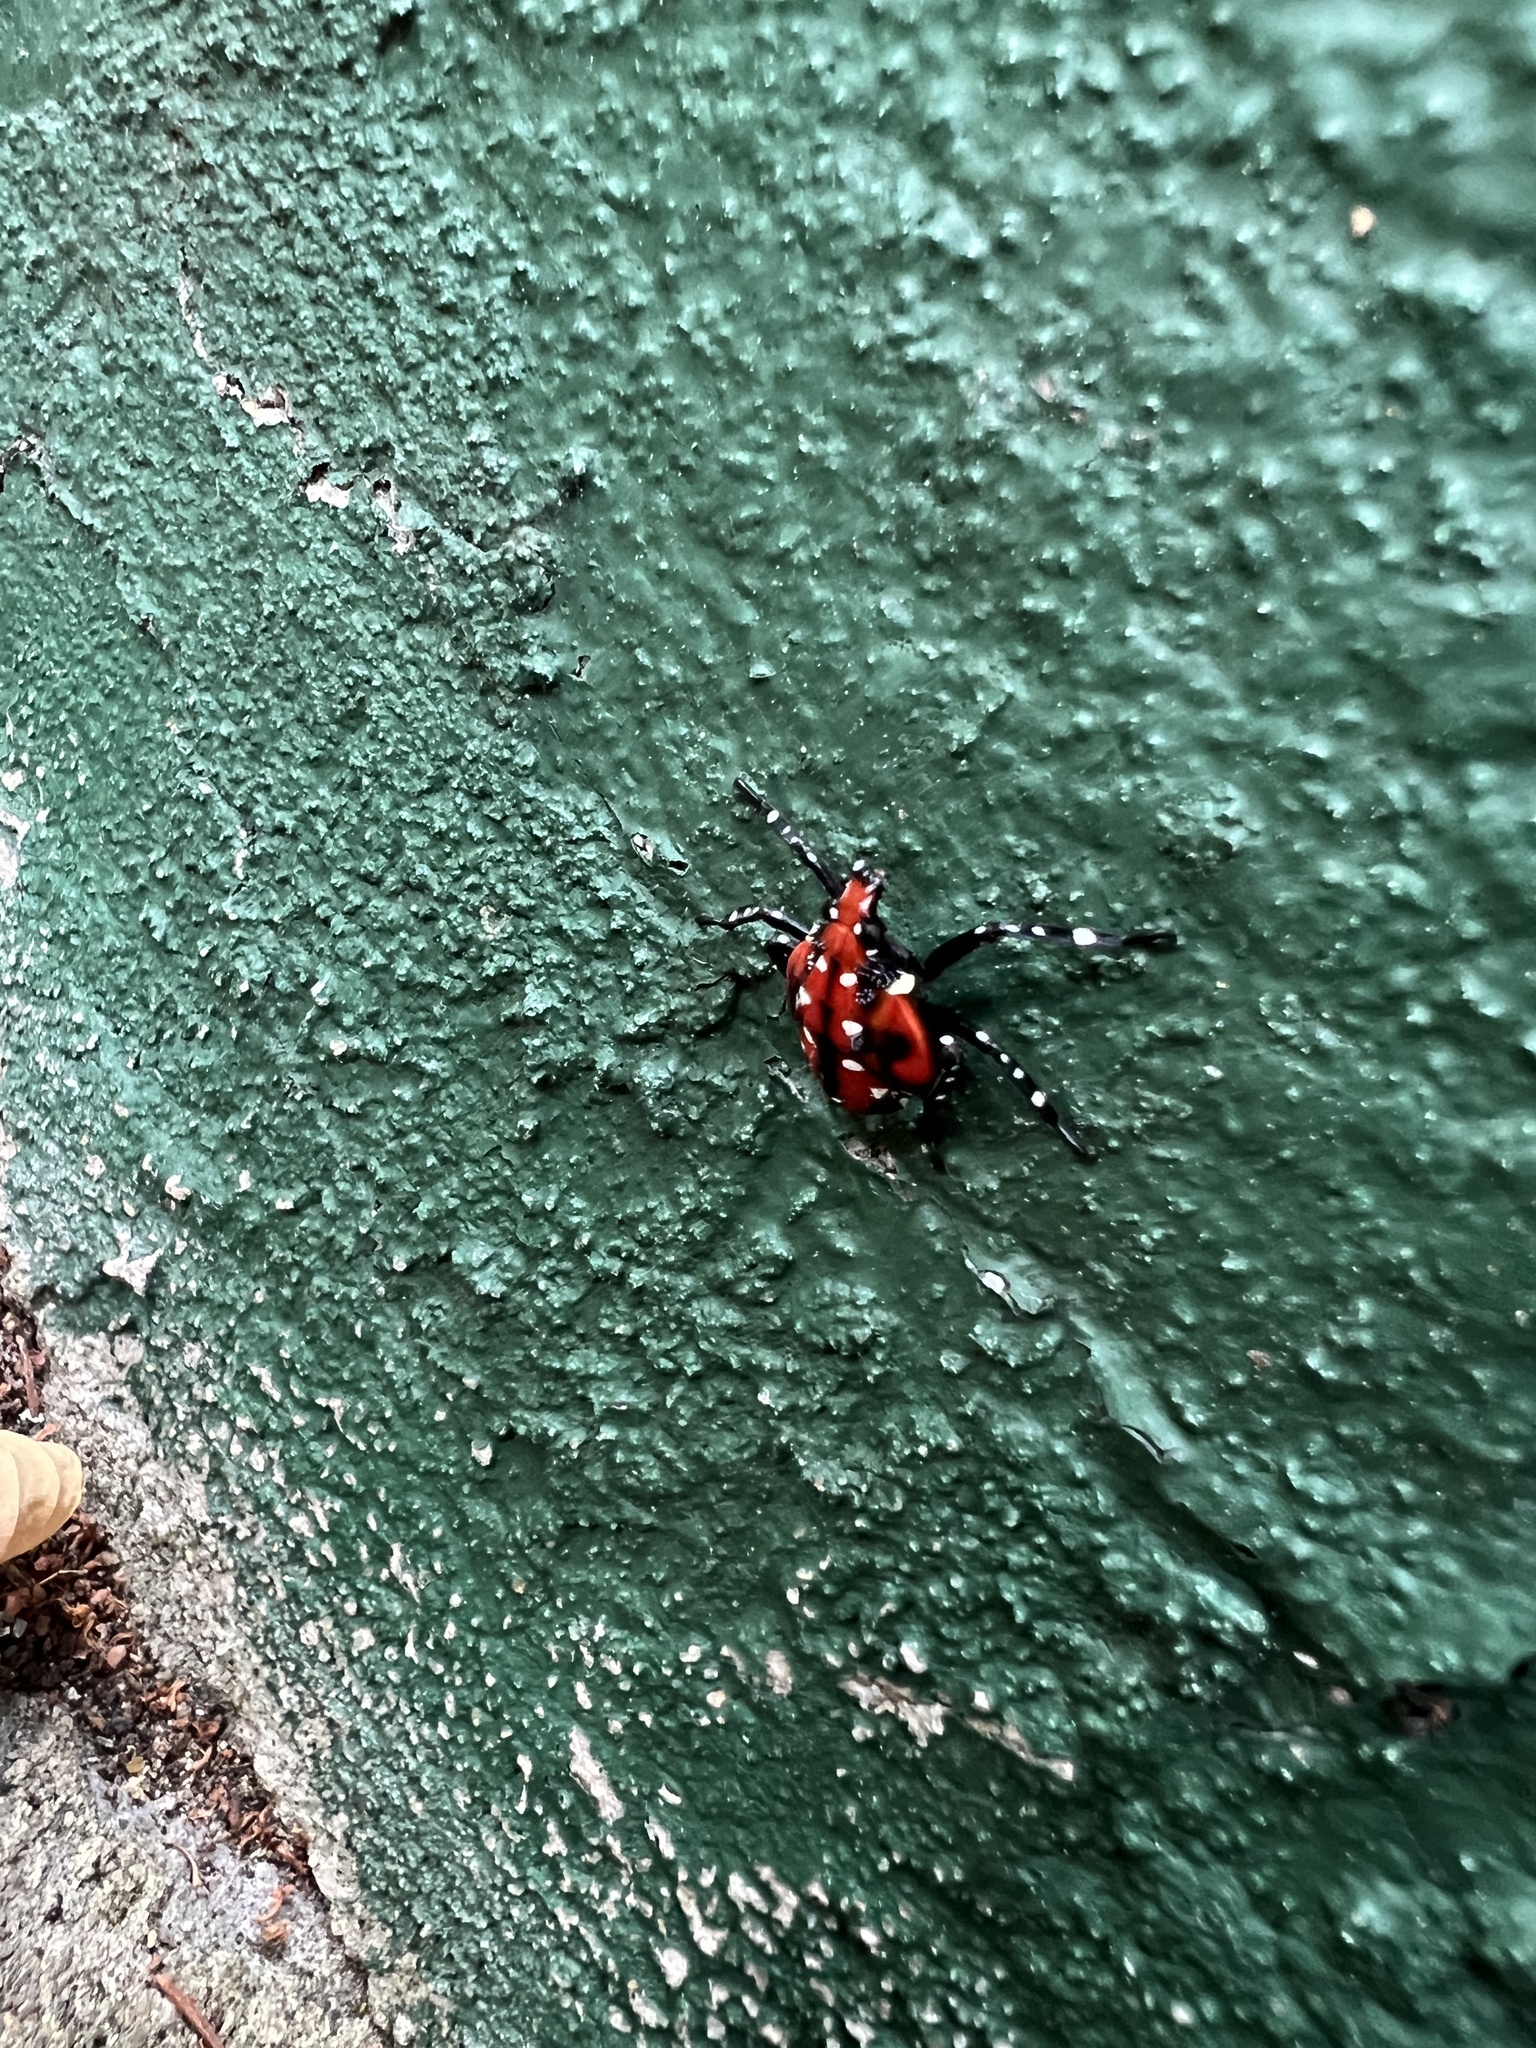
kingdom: Animalia
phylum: Arthropoda
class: Insecta
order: Hemiptera
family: Fulgoridae
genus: Lycorma
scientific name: Lycorma delicatula
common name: Spotted lanternfly
